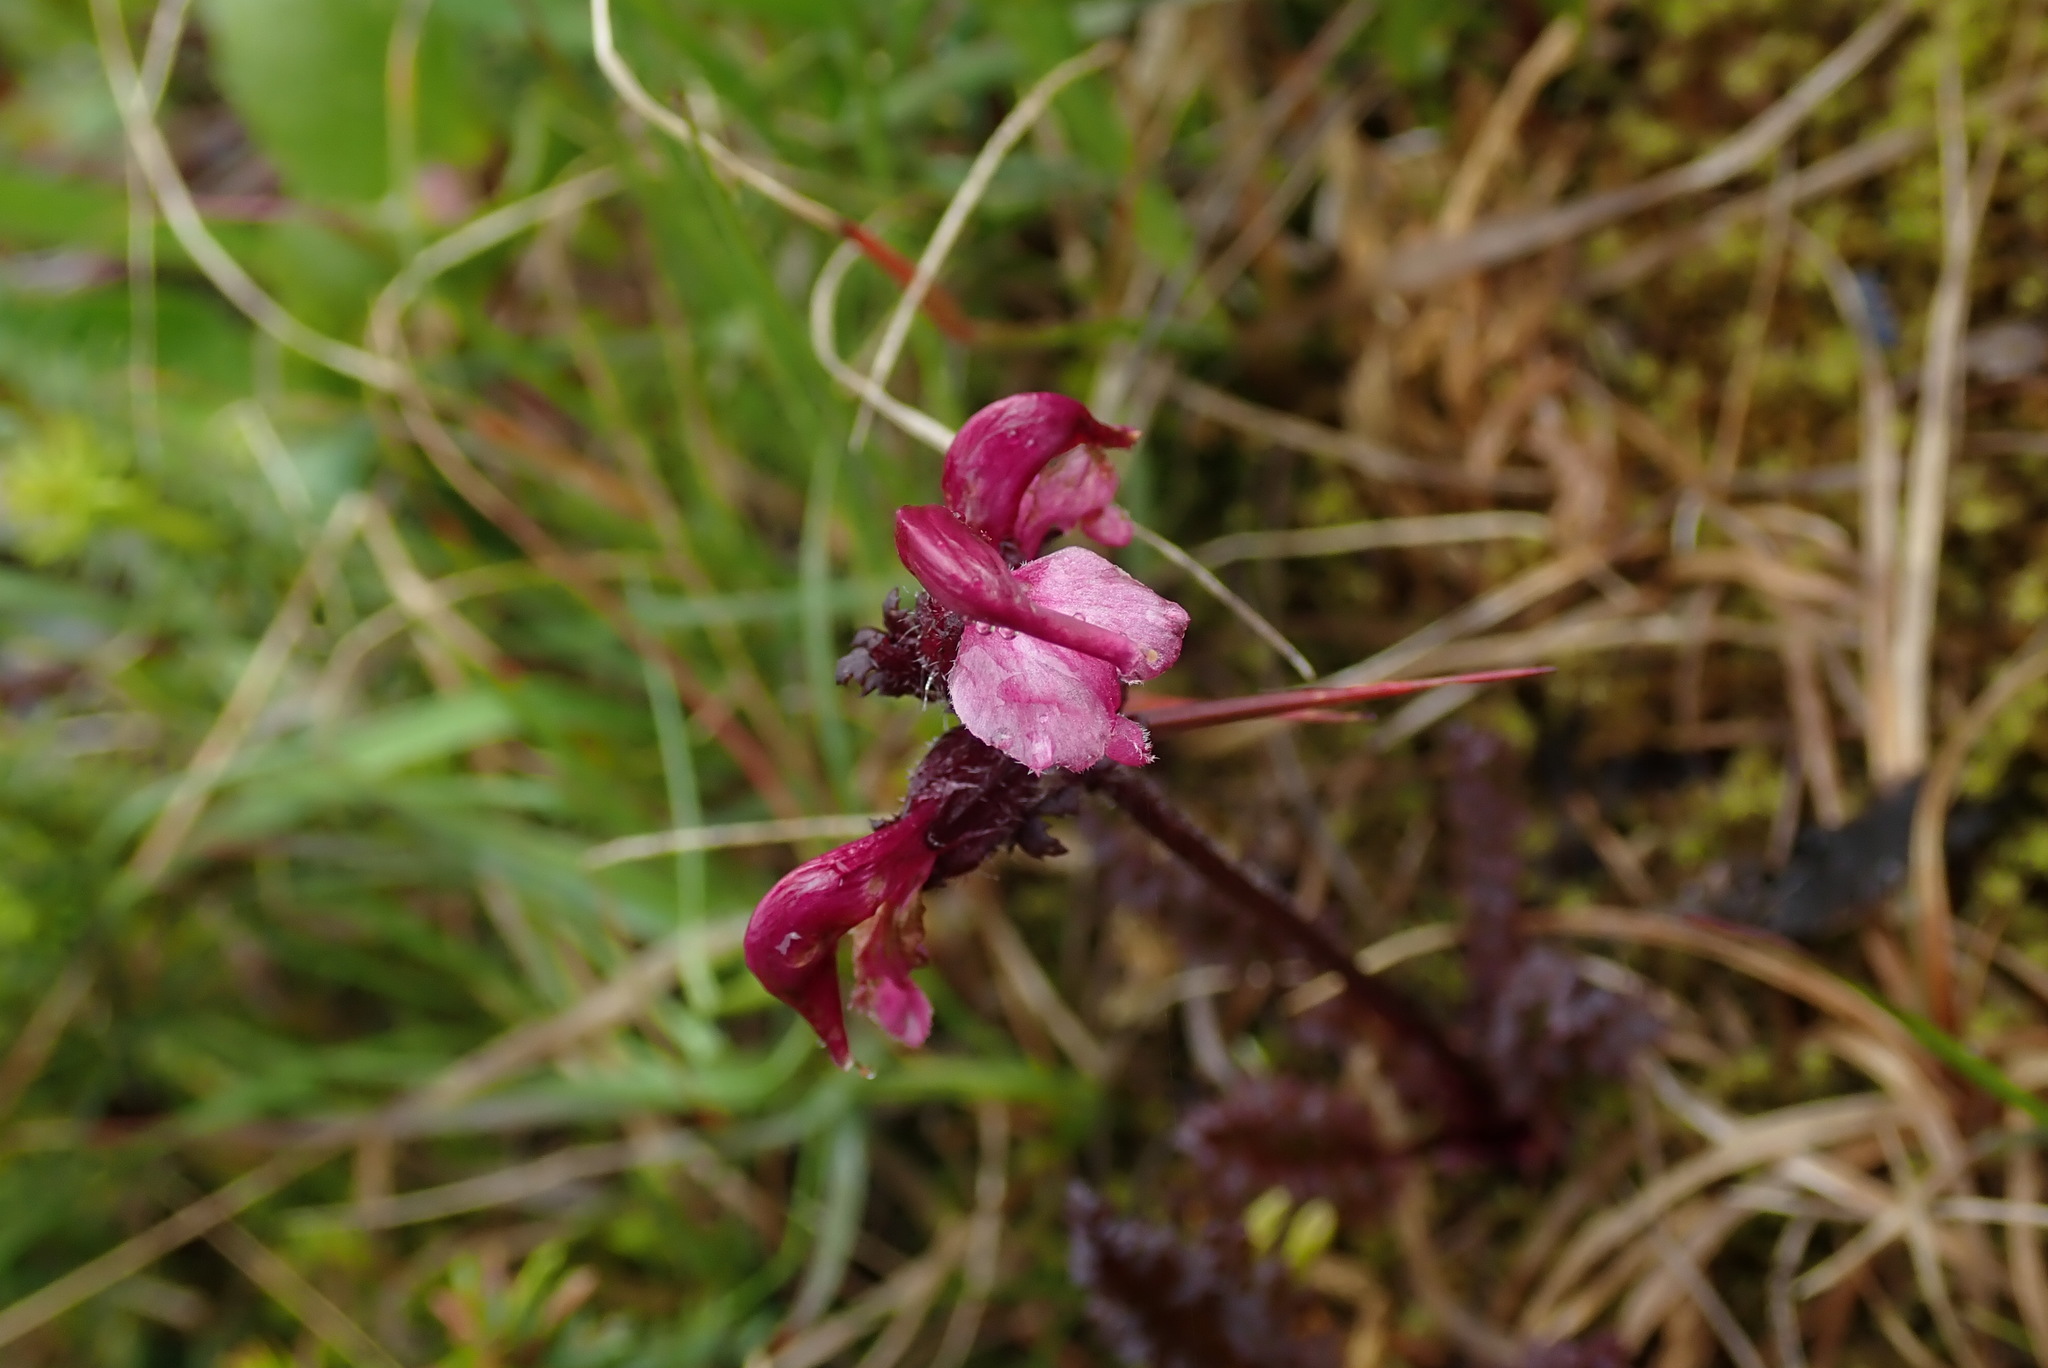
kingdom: Plantae
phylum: Tracheophyta
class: Magnoliopsida
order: Lamiales
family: Orobanchaceae
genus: Pedicularis
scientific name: Pedicularis ornithorhynchos
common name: Bird's-beak lousewort
